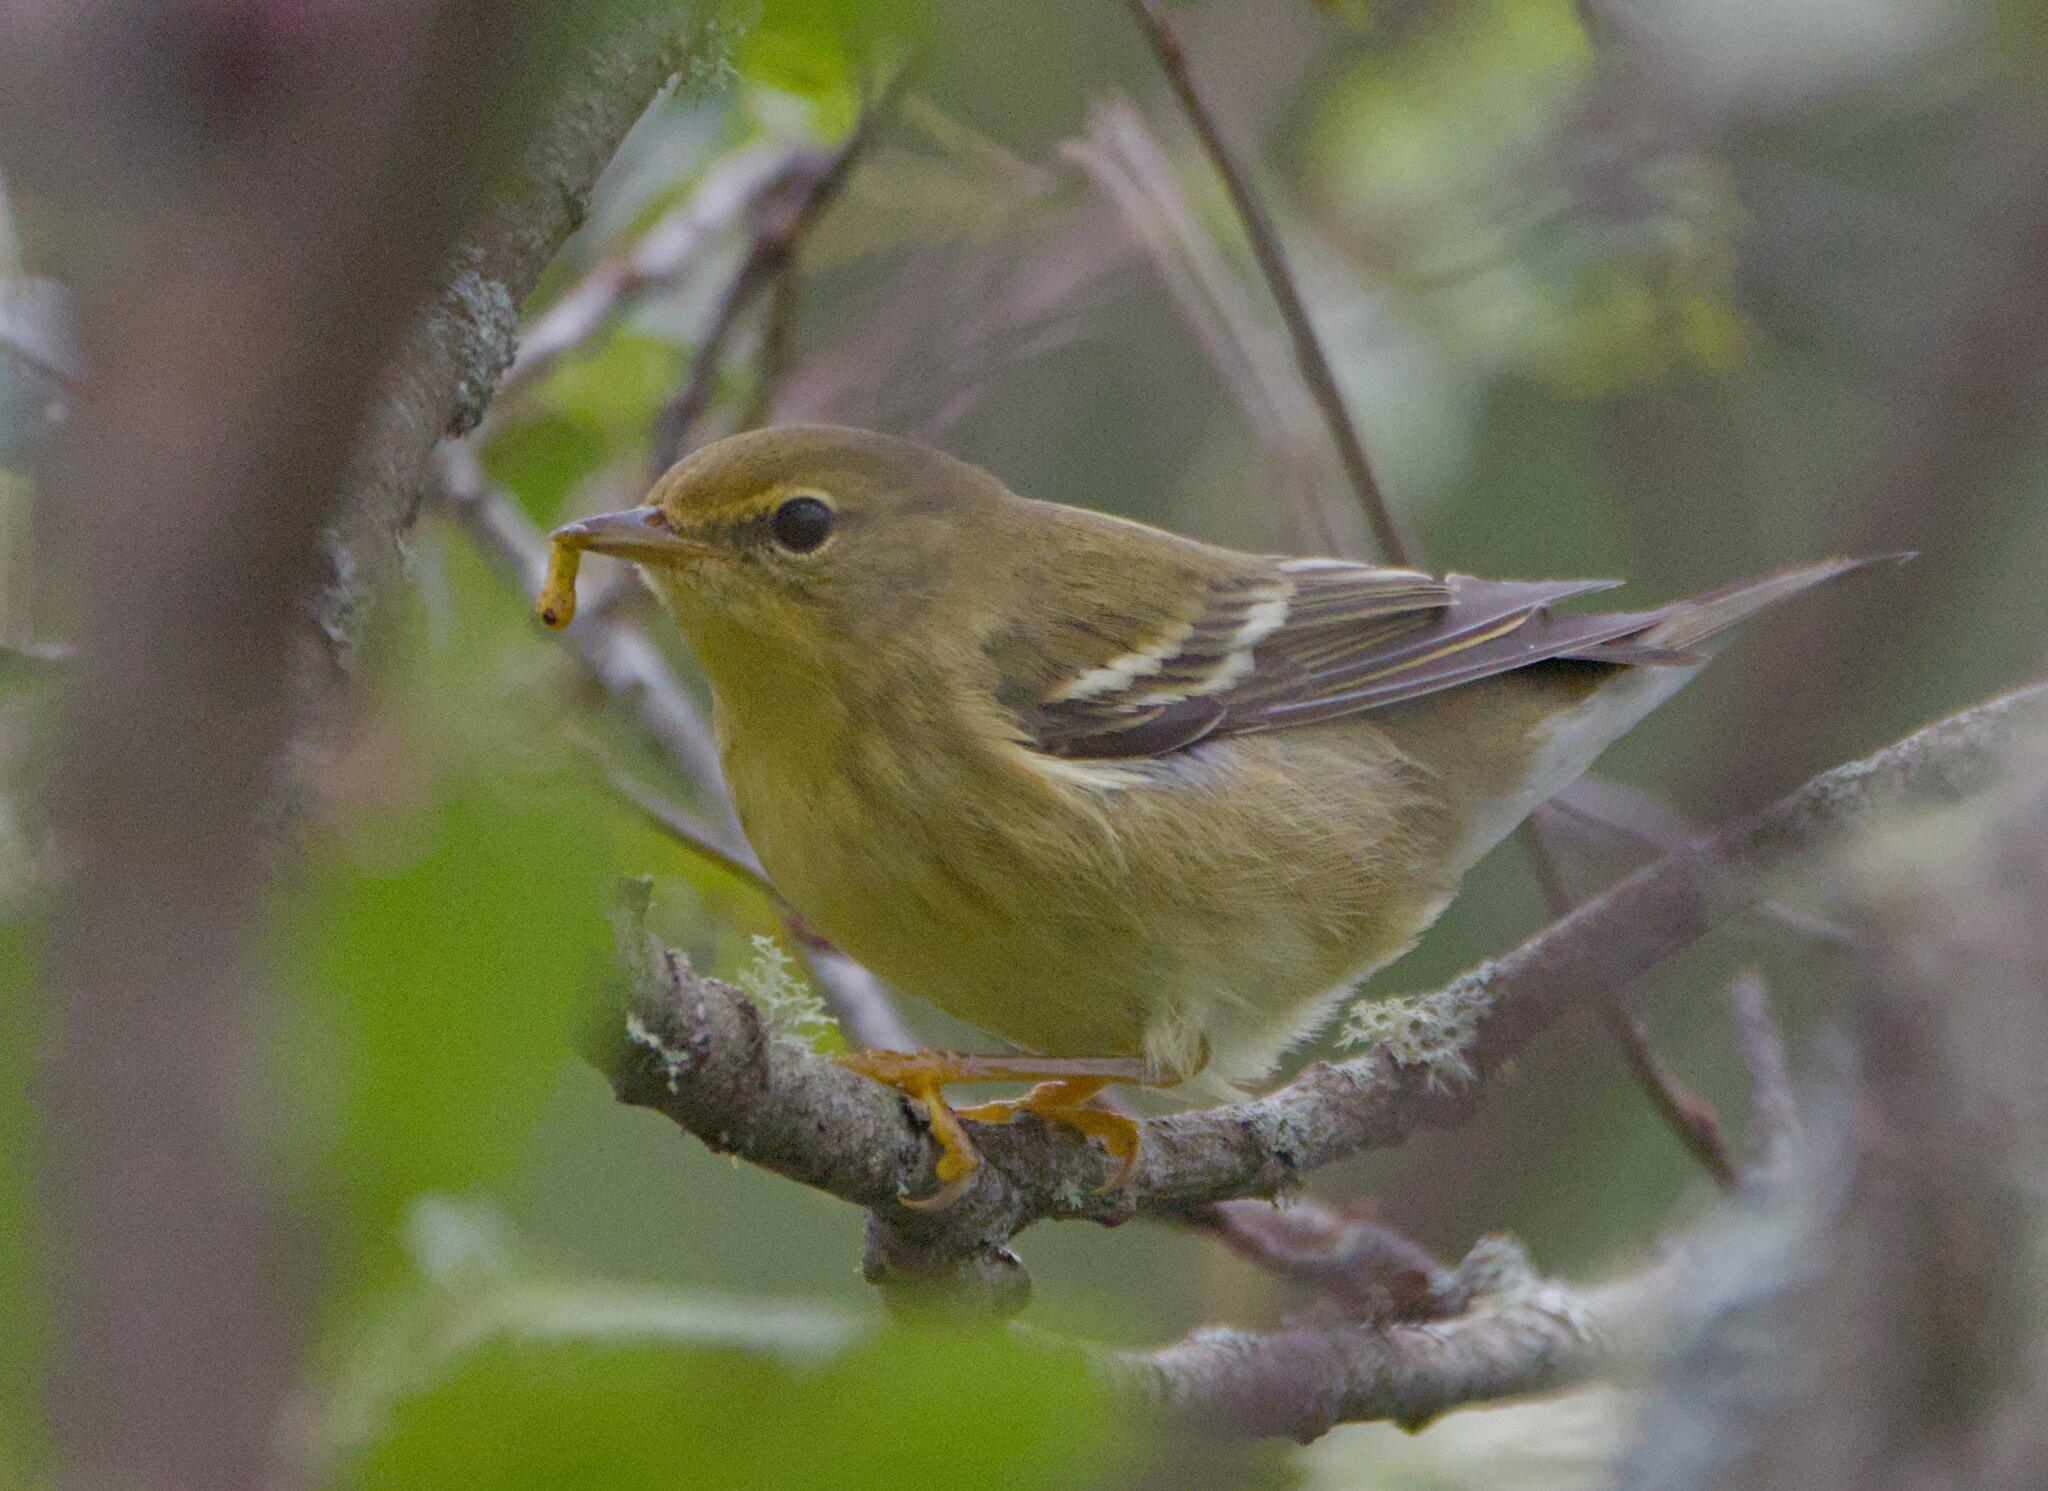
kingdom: Animalia
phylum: Chordata
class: Aves
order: Passeriformes
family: Parulidae
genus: Setophaga
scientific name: Setophaga striata
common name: Blackpoll warbler
